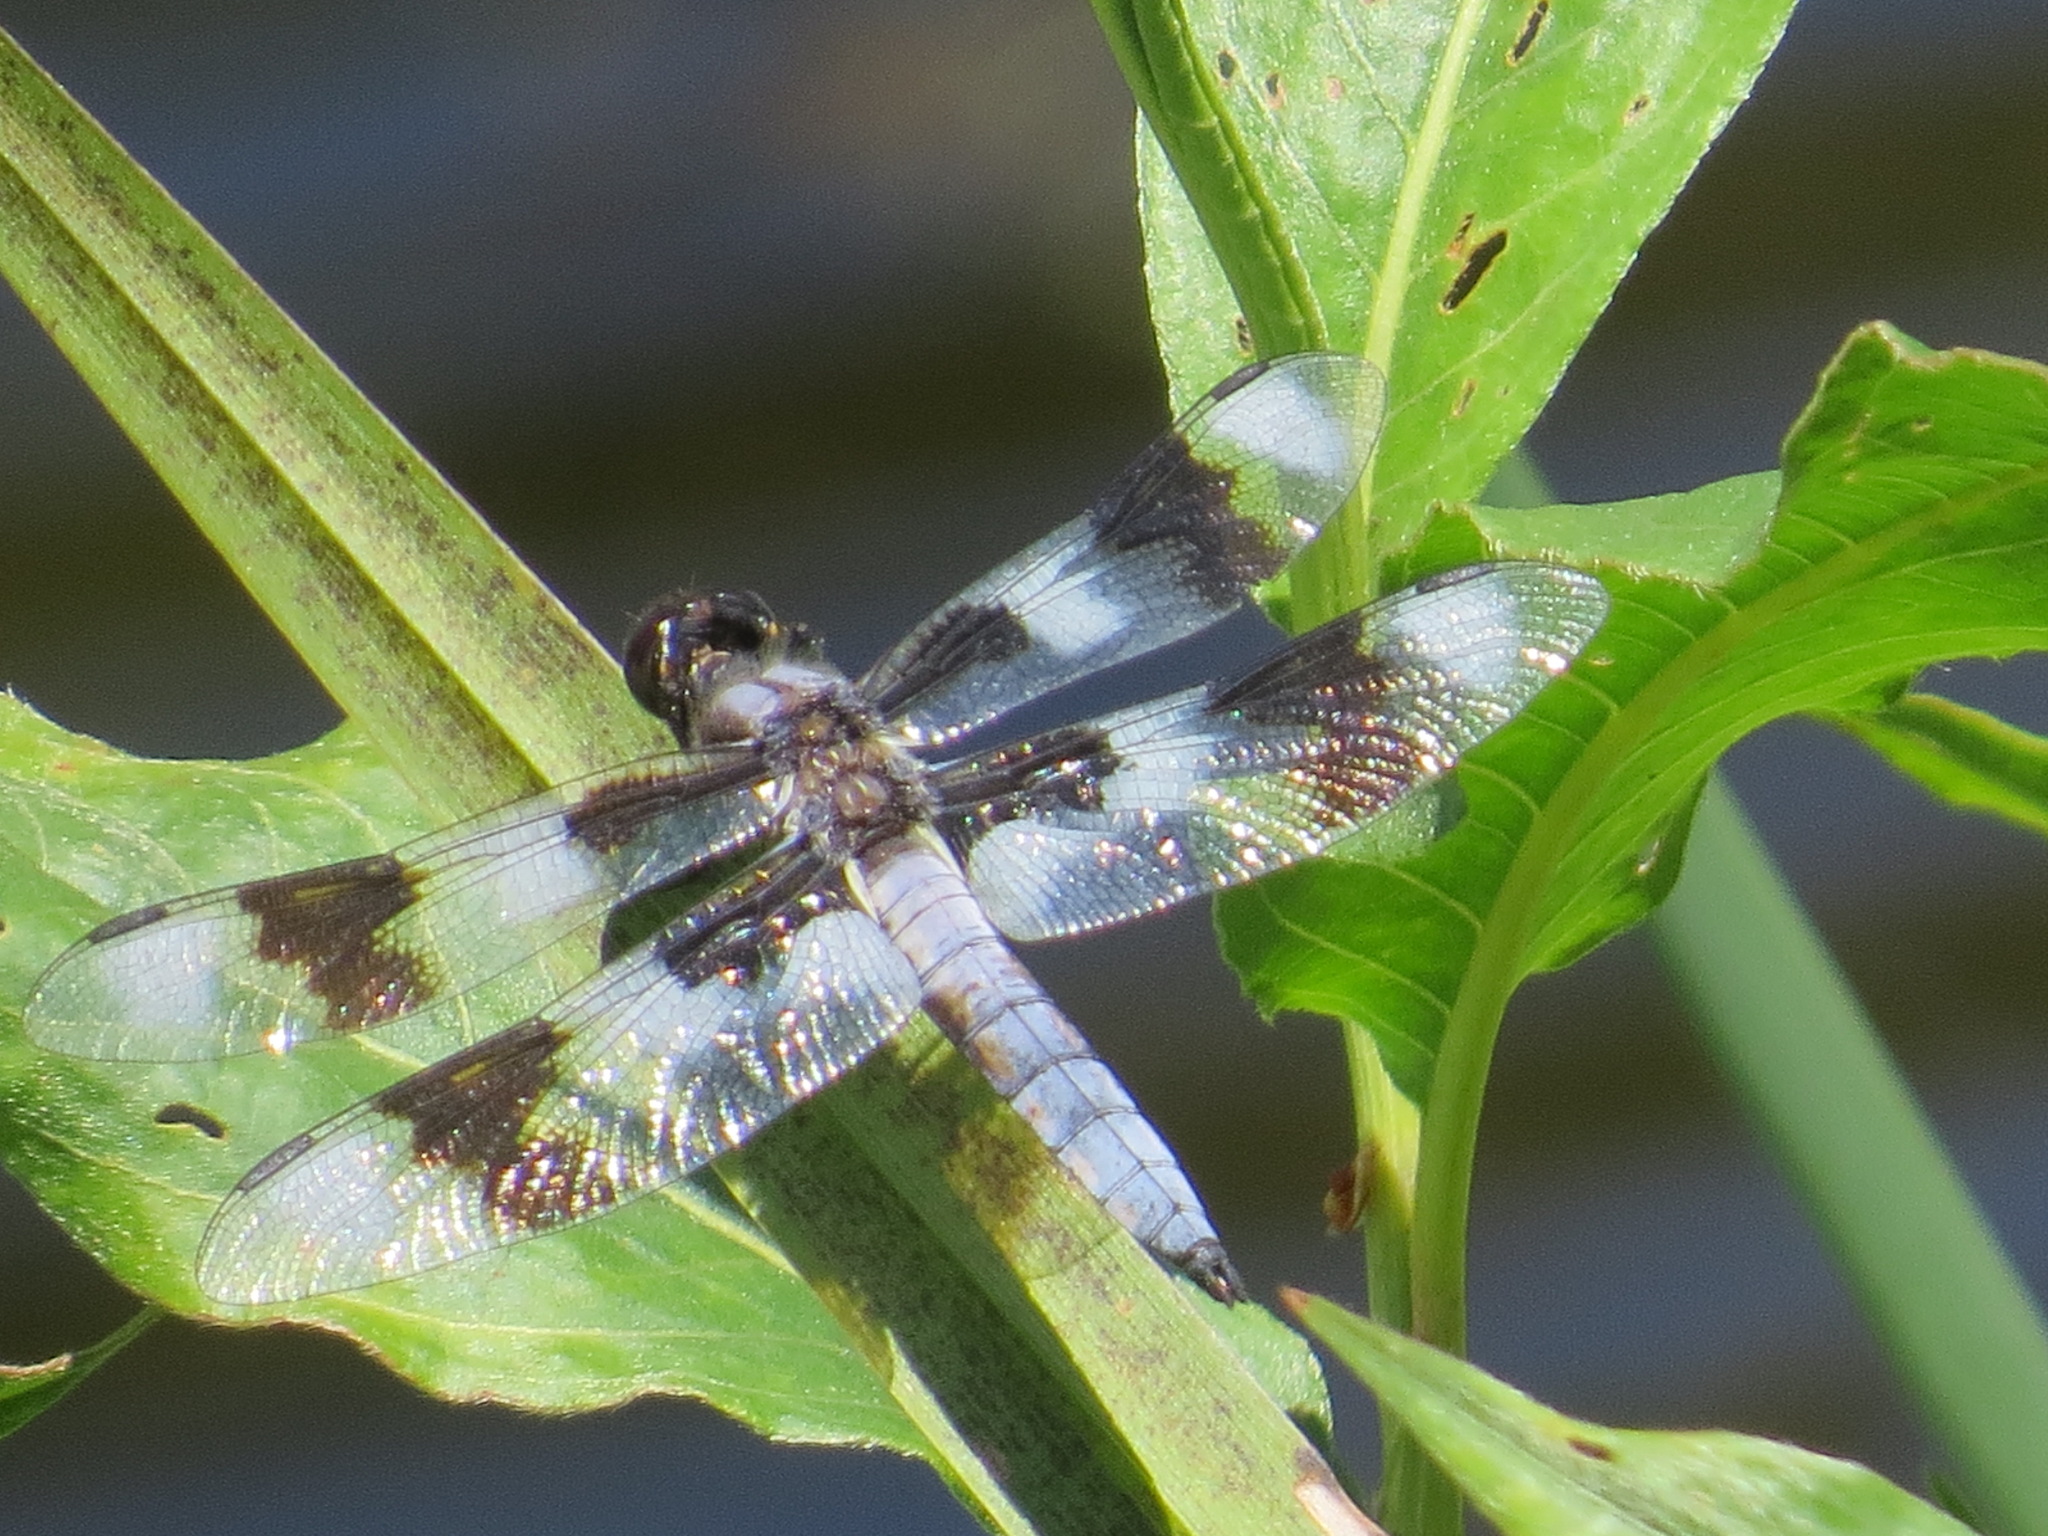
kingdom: Animalia
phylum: Arthropoda
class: Insecta
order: Odonata
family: Libellulidae
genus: Libellula
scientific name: Libellula forensis
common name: Eight-spotted skimmer
